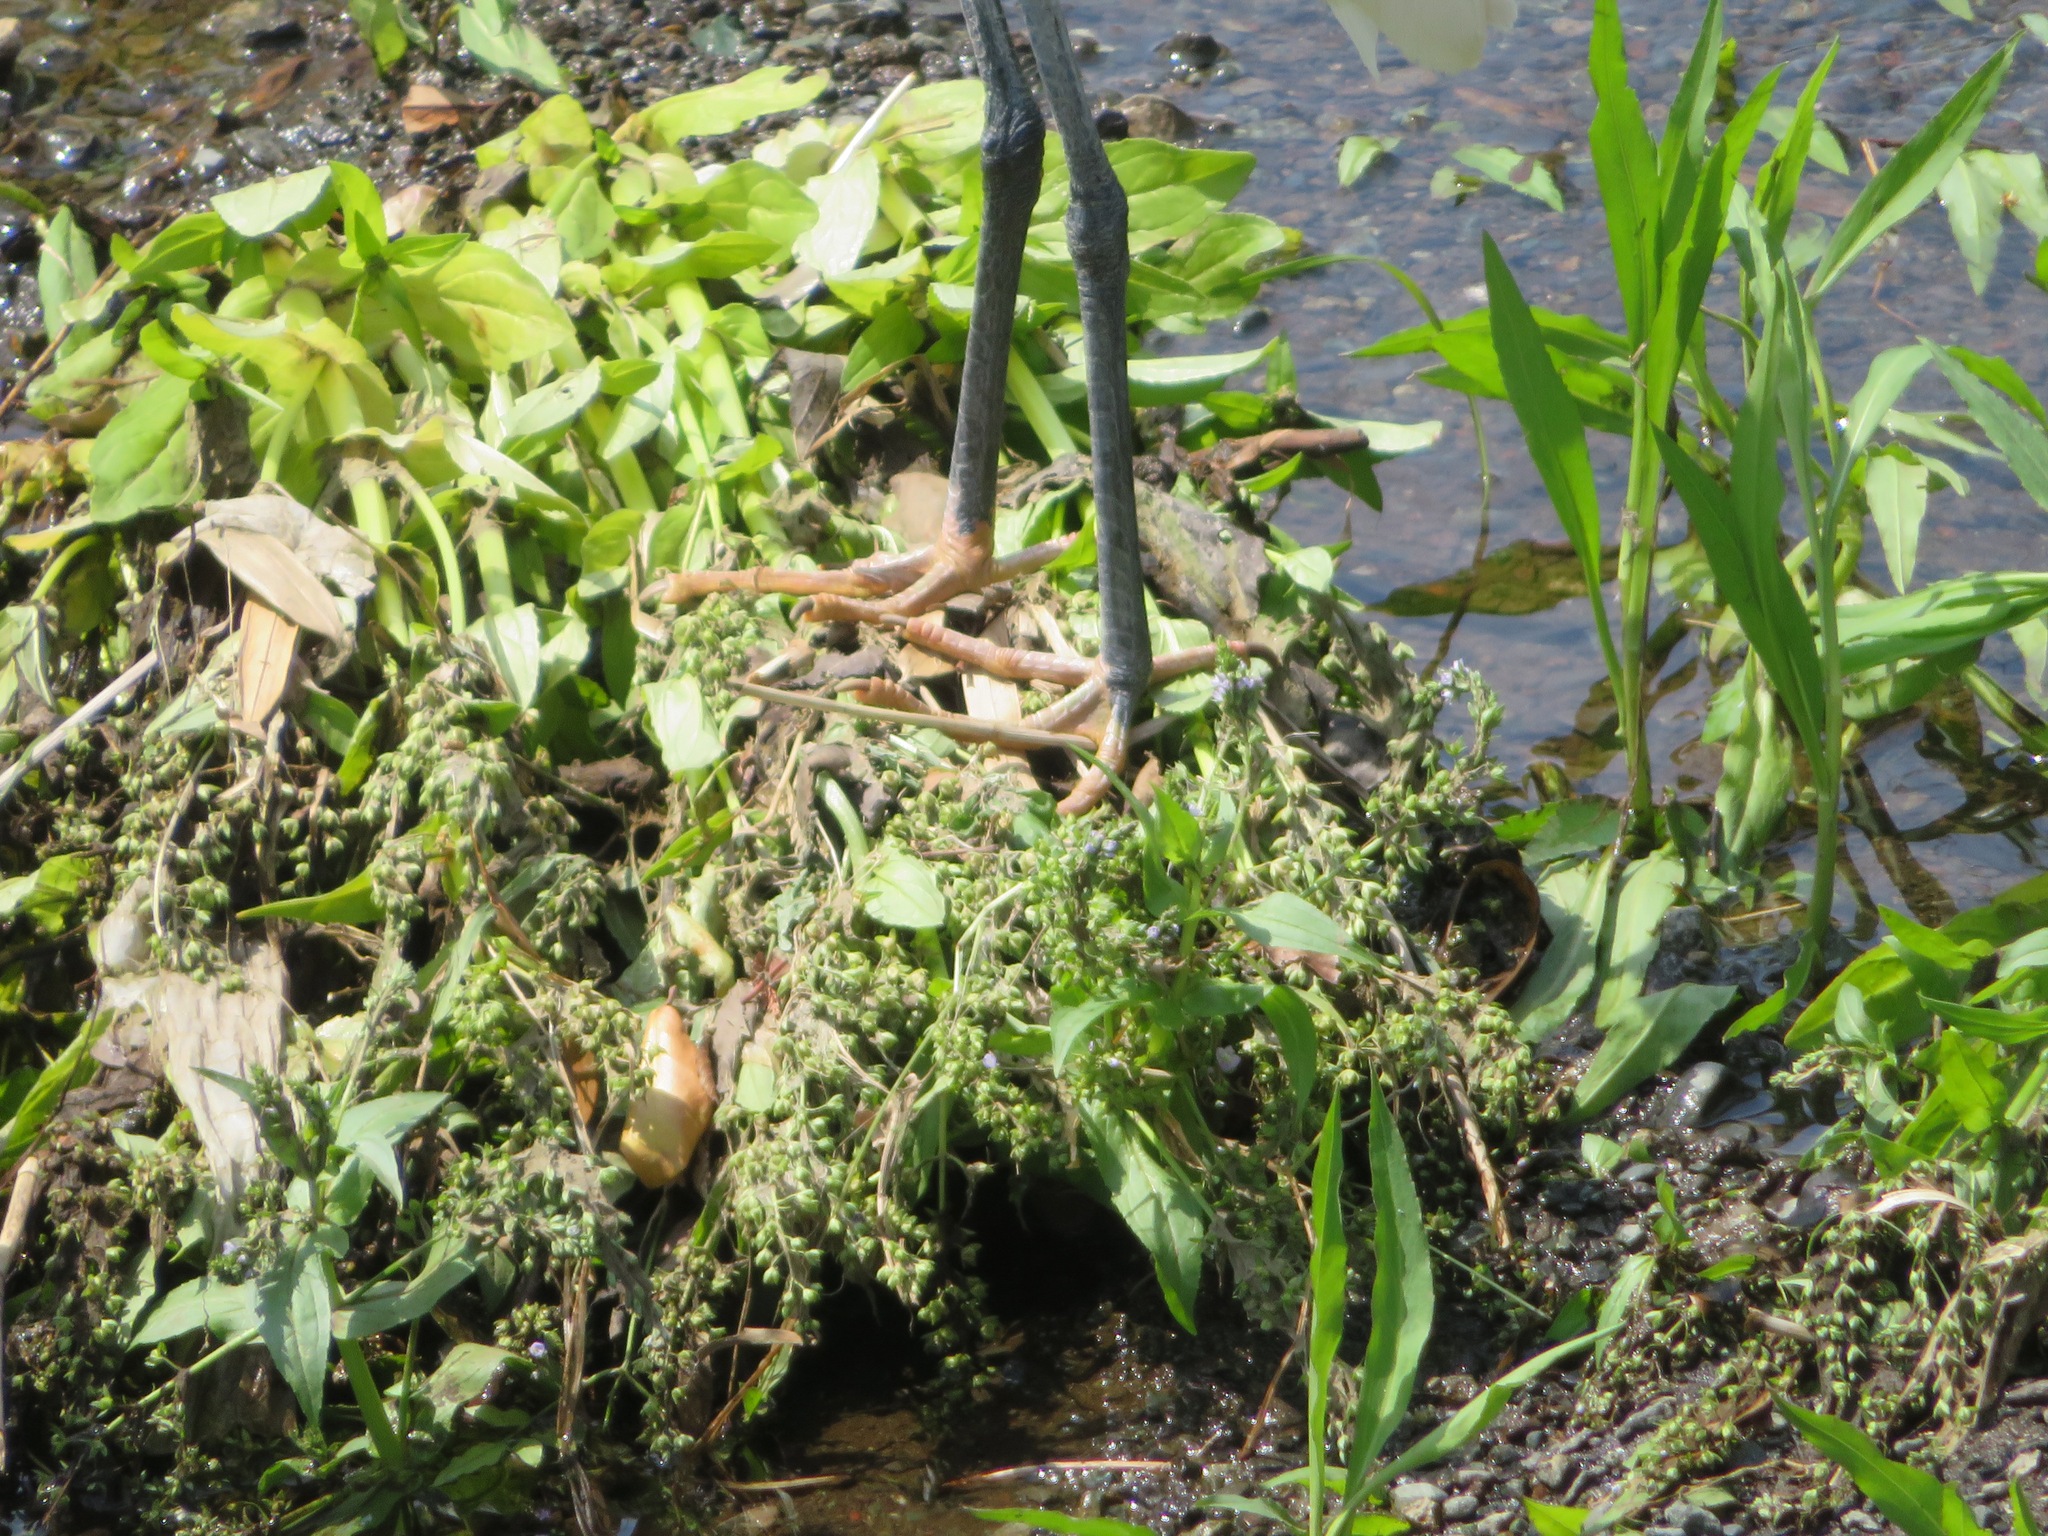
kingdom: Animalia
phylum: Chordata
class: Aves
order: Pelecaniformes
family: Ardeidae
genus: Egretta
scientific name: Egretta garzetta
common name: Little egret
